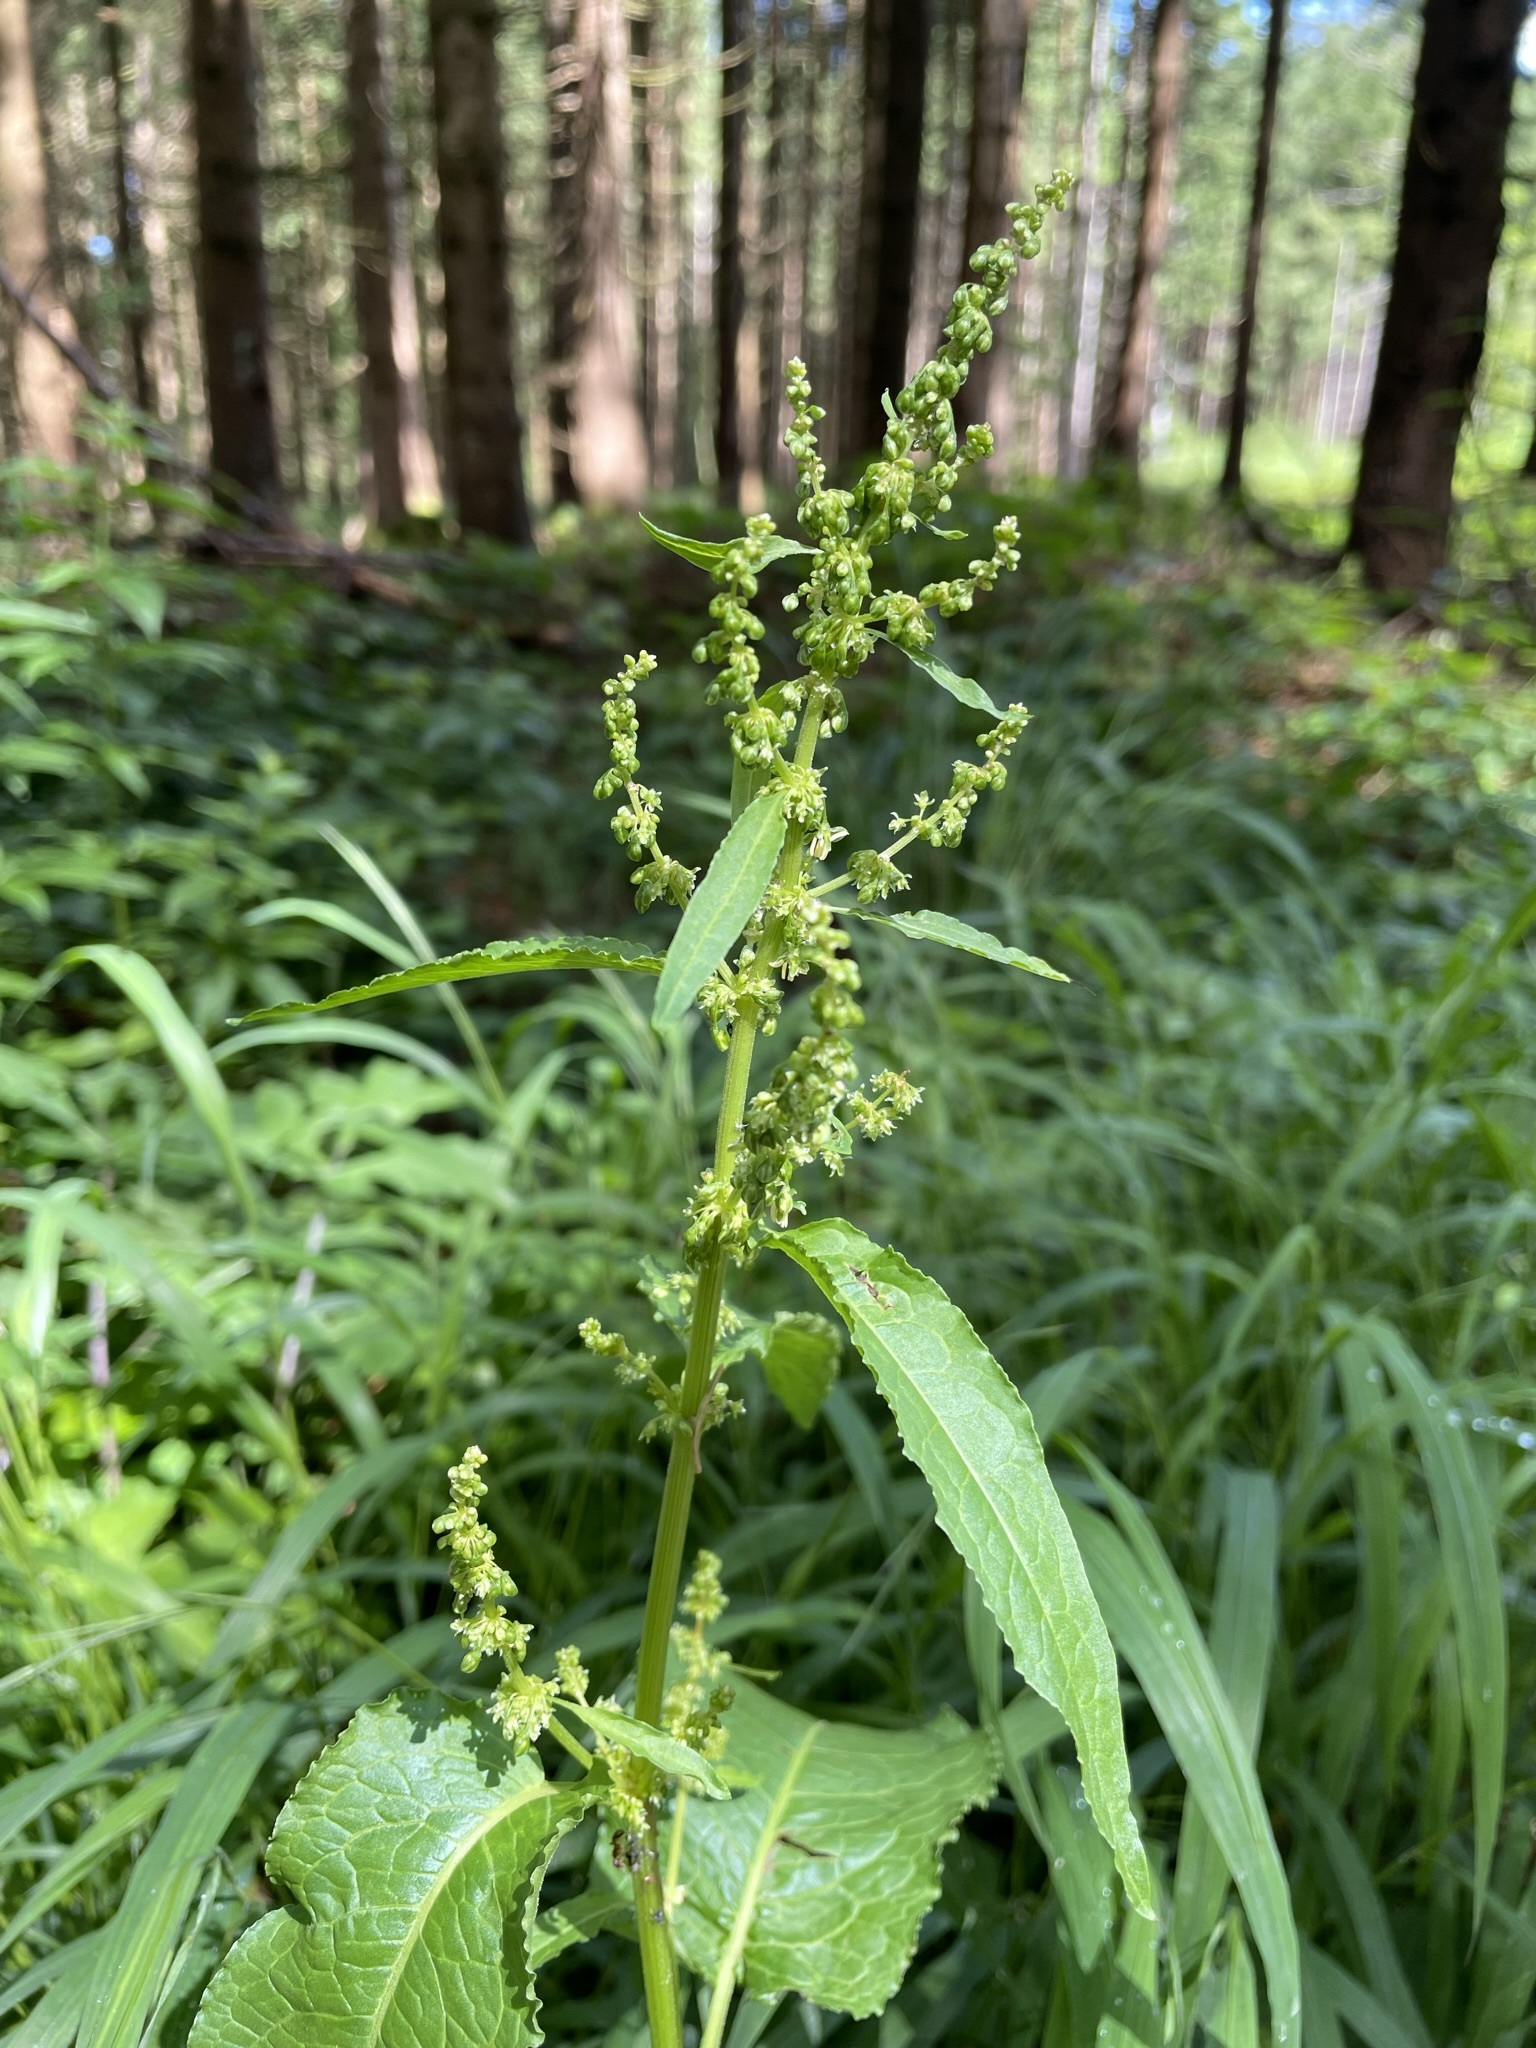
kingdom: Plantae
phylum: Tracheophyta
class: Magnoliopsida
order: Caryophyllales
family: Polygonaceae
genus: Rumex
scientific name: Rumex obtusifolius
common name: Bitter dock
